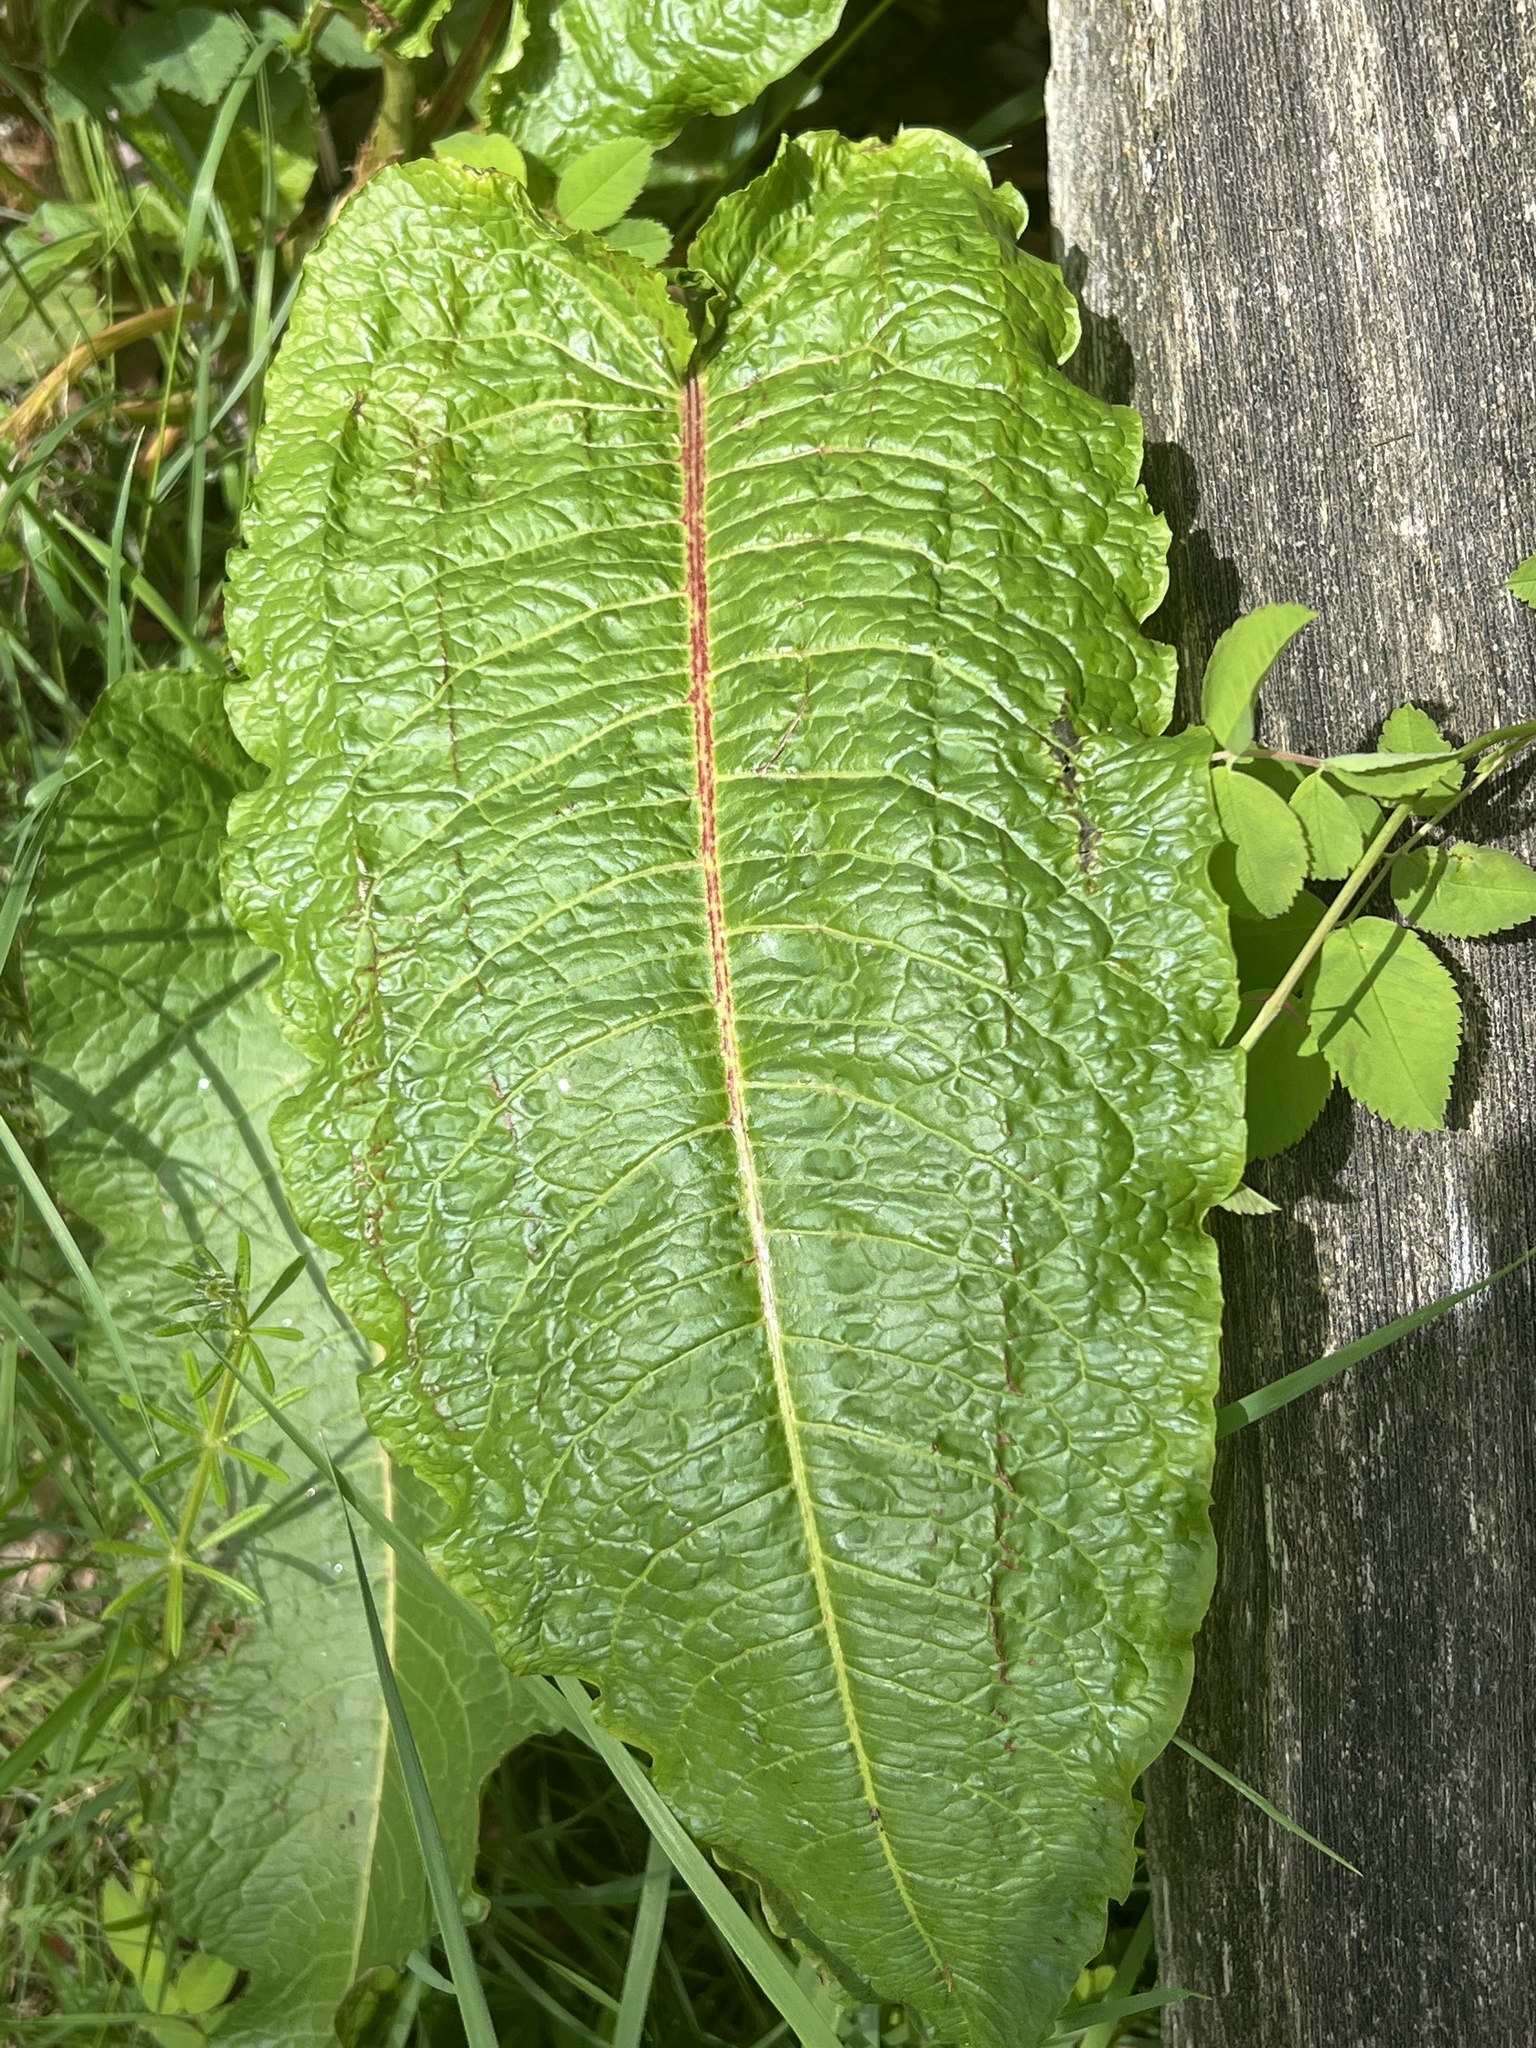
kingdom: Plantae
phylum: Tracheophyta
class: Magnoliopsida
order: Caryophyllales
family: Polygonaceae
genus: Rumex
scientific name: Rumex obtusifolius
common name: Bitter dock
